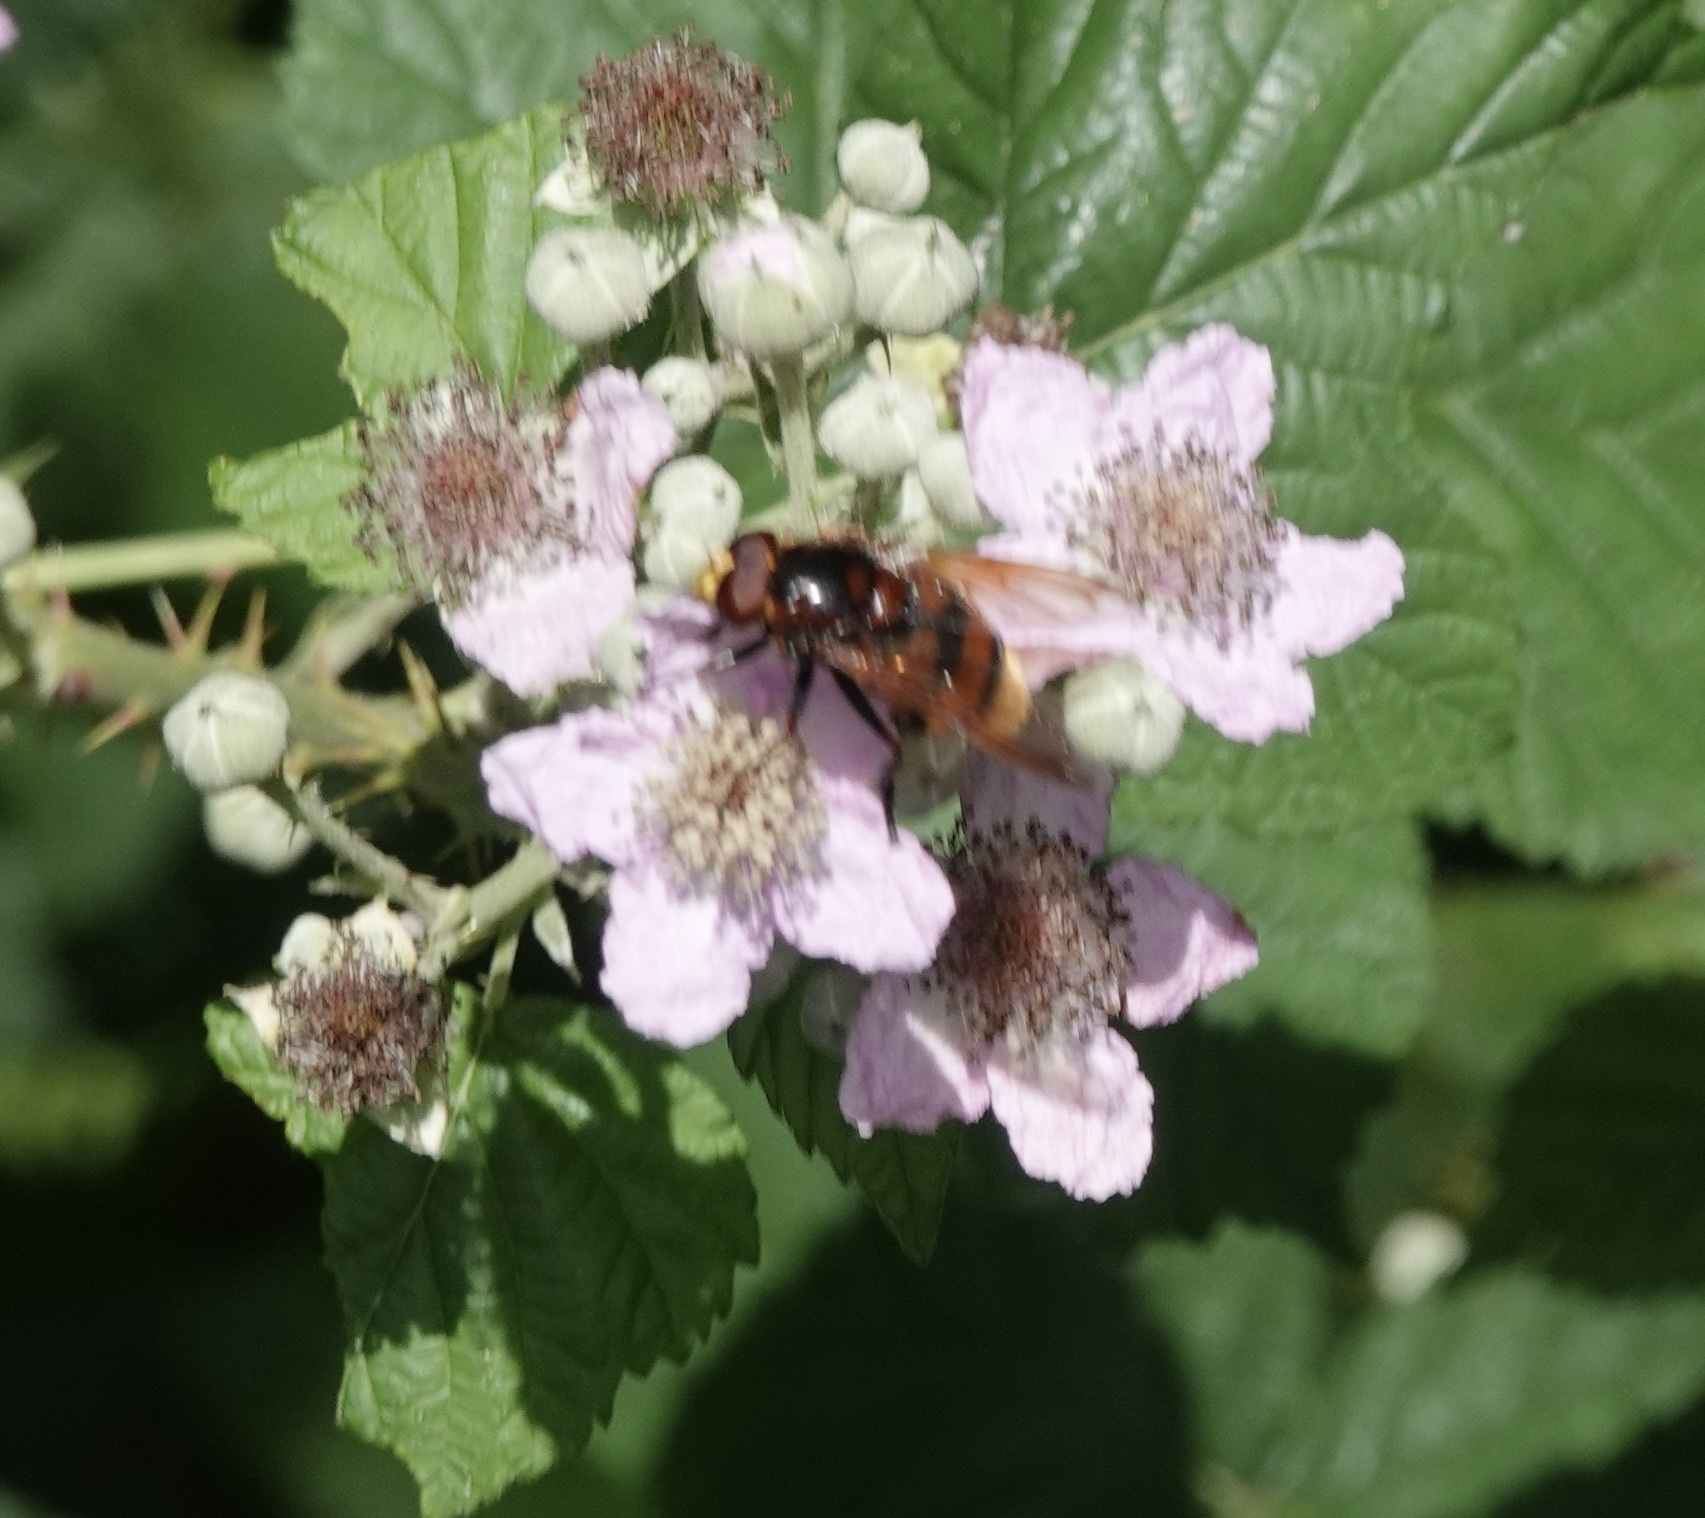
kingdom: Animalia
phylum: Arthropoda
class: Insecta
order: Diptera
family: Syrphidae
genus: Volucella
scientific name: Volucella zonaria
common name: Hornet hoverfly
